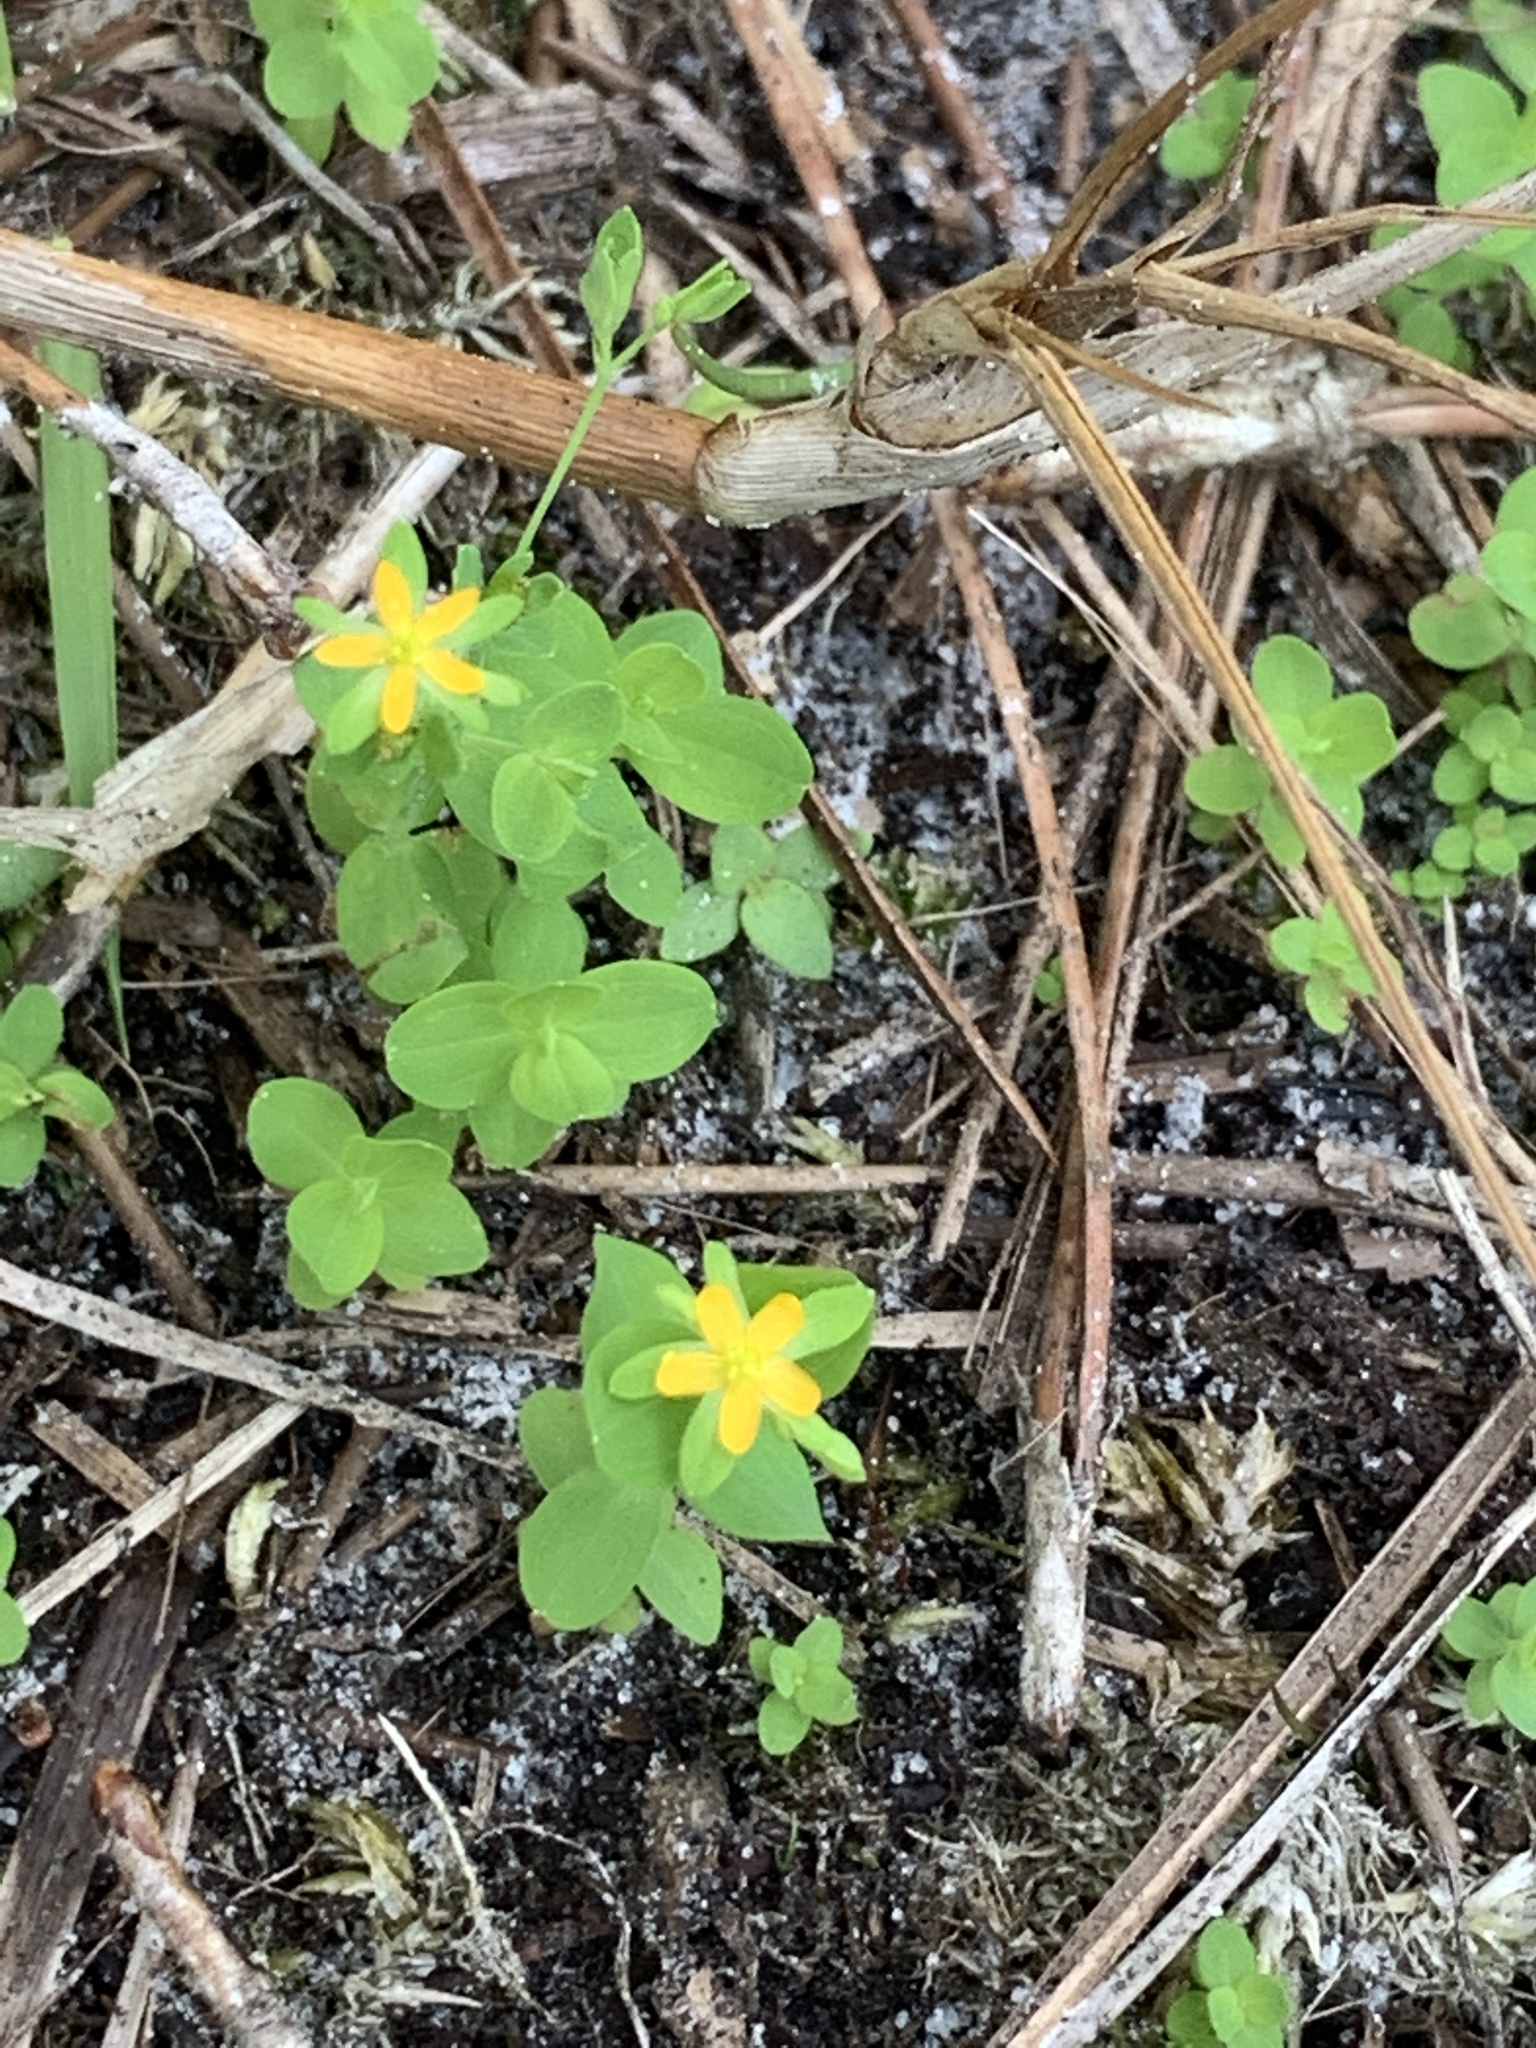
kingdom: Plantae
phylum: Tracheophyta
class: Magnoliopsida
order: Malpighiales
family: Hypericaceae
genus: Hypericum
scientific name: Hypericum mutilum
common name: Dwarf st. john's-wort
